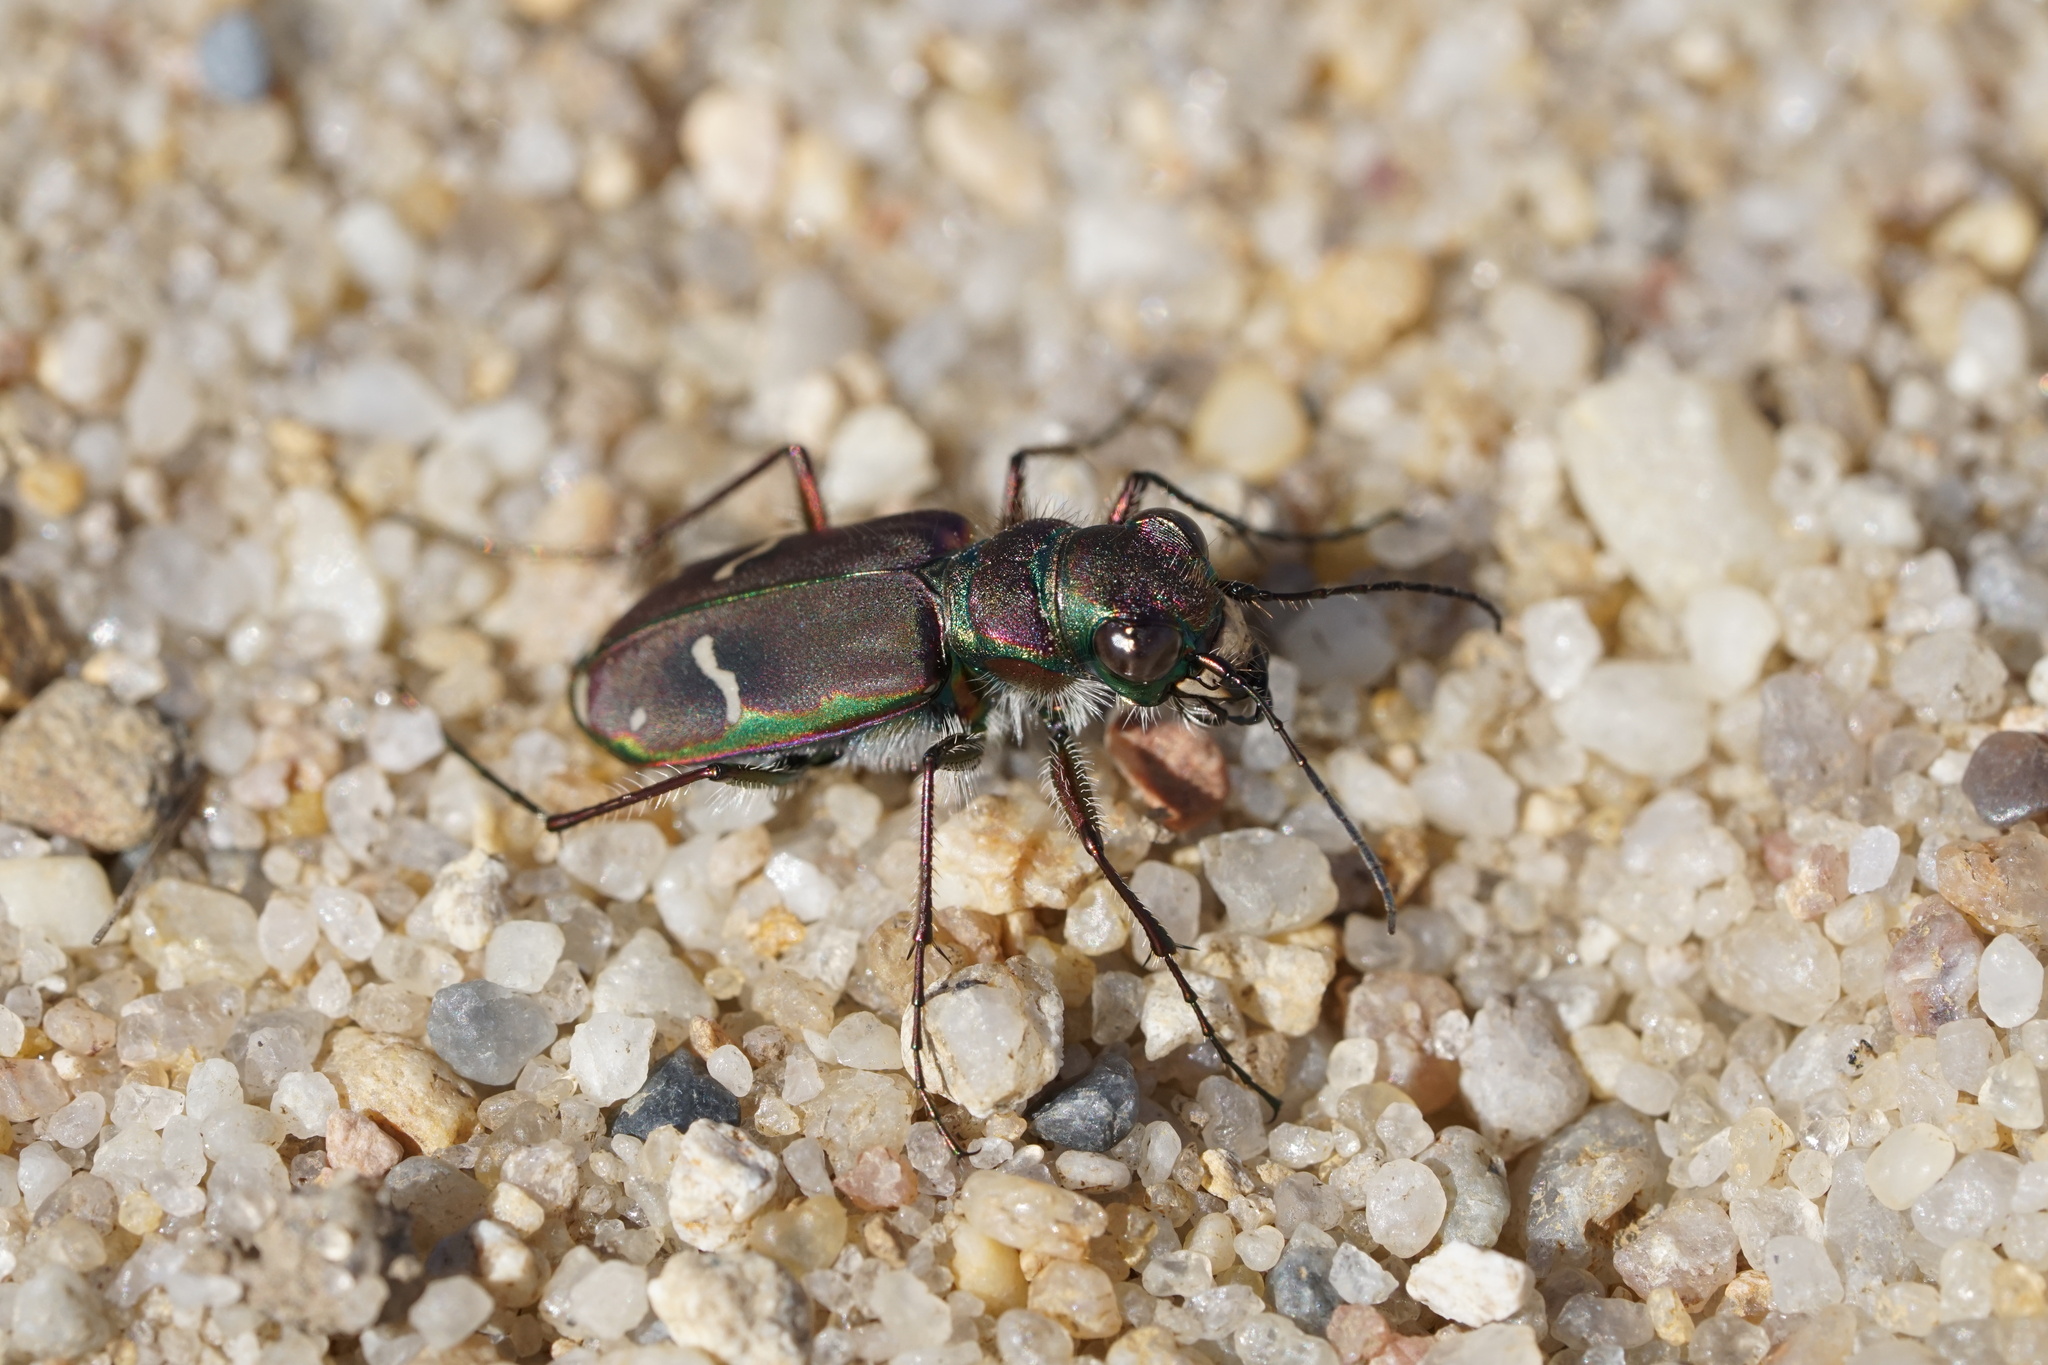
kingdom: Animalia
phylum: Arthropoda
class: Insecta
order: Coleoptera
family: Carabidae
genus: Cicindela
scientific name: Cicindela purpurea
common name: Cow path tiger beetle
